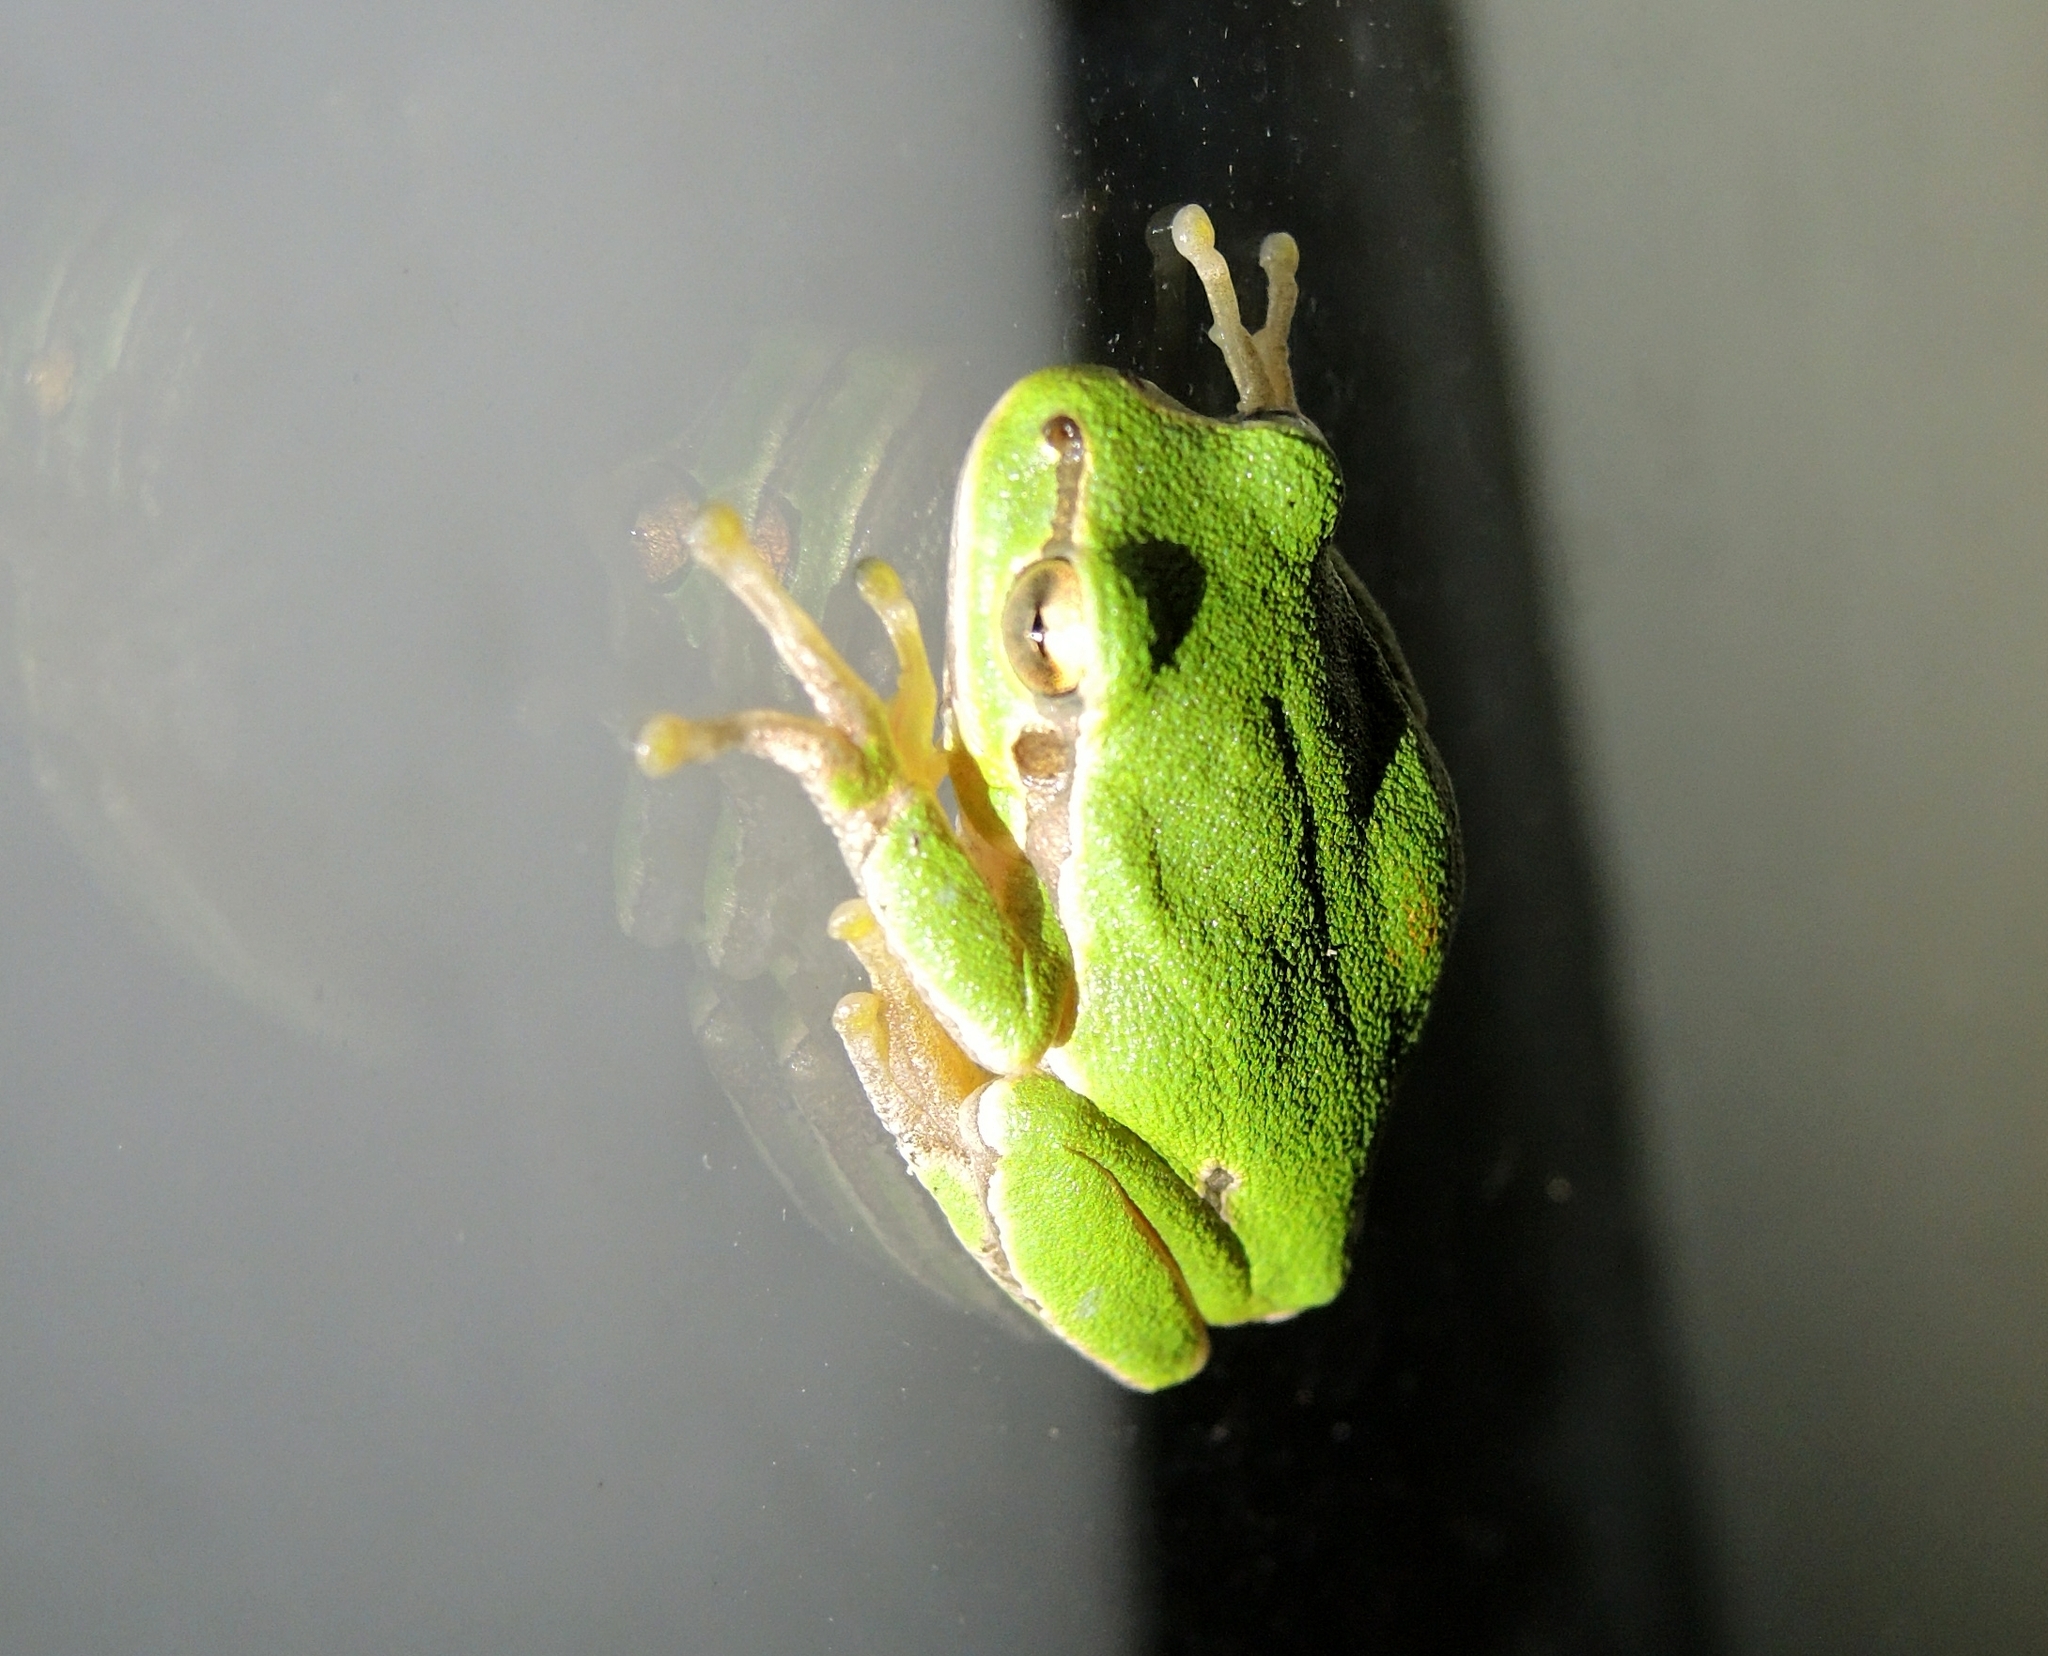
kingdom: Animalia
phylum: Chordata
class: Amphibia
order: Anura
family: Hylidae
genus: Hyla
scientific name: Hyla orientalis
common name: Caucasian treefrog
